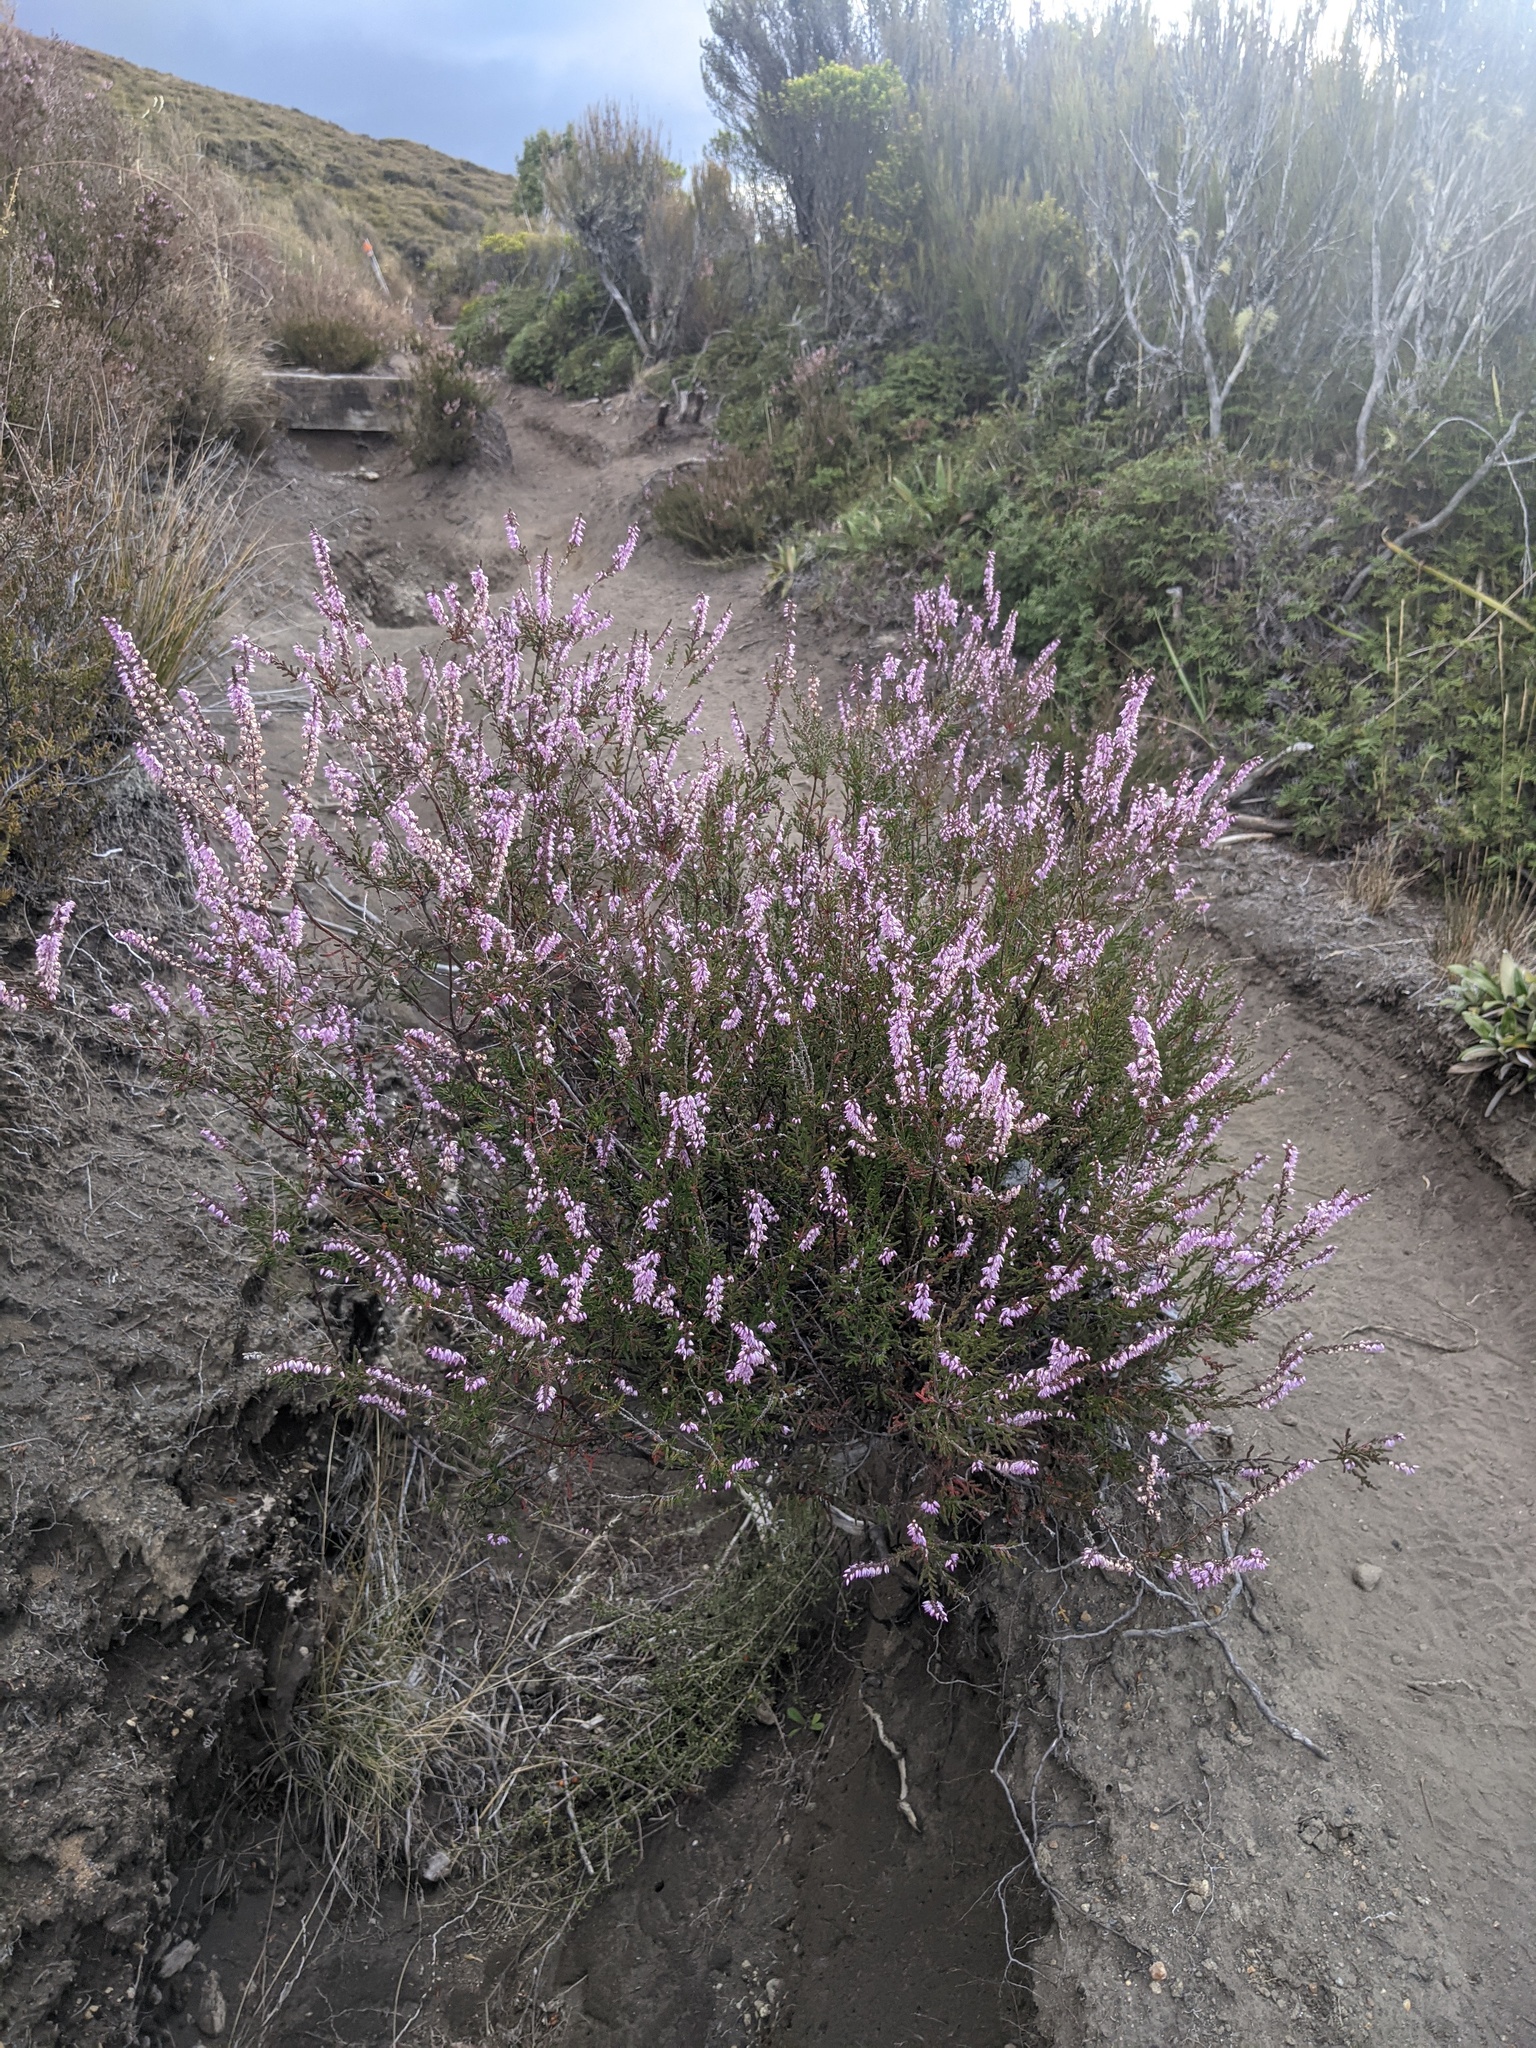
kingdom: Plantae
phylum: Tracheophyta
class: Magnoliopsida
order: Ericales
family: Ericaceae
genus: Calluna
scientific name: Calluna vulgaris
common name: Heather
